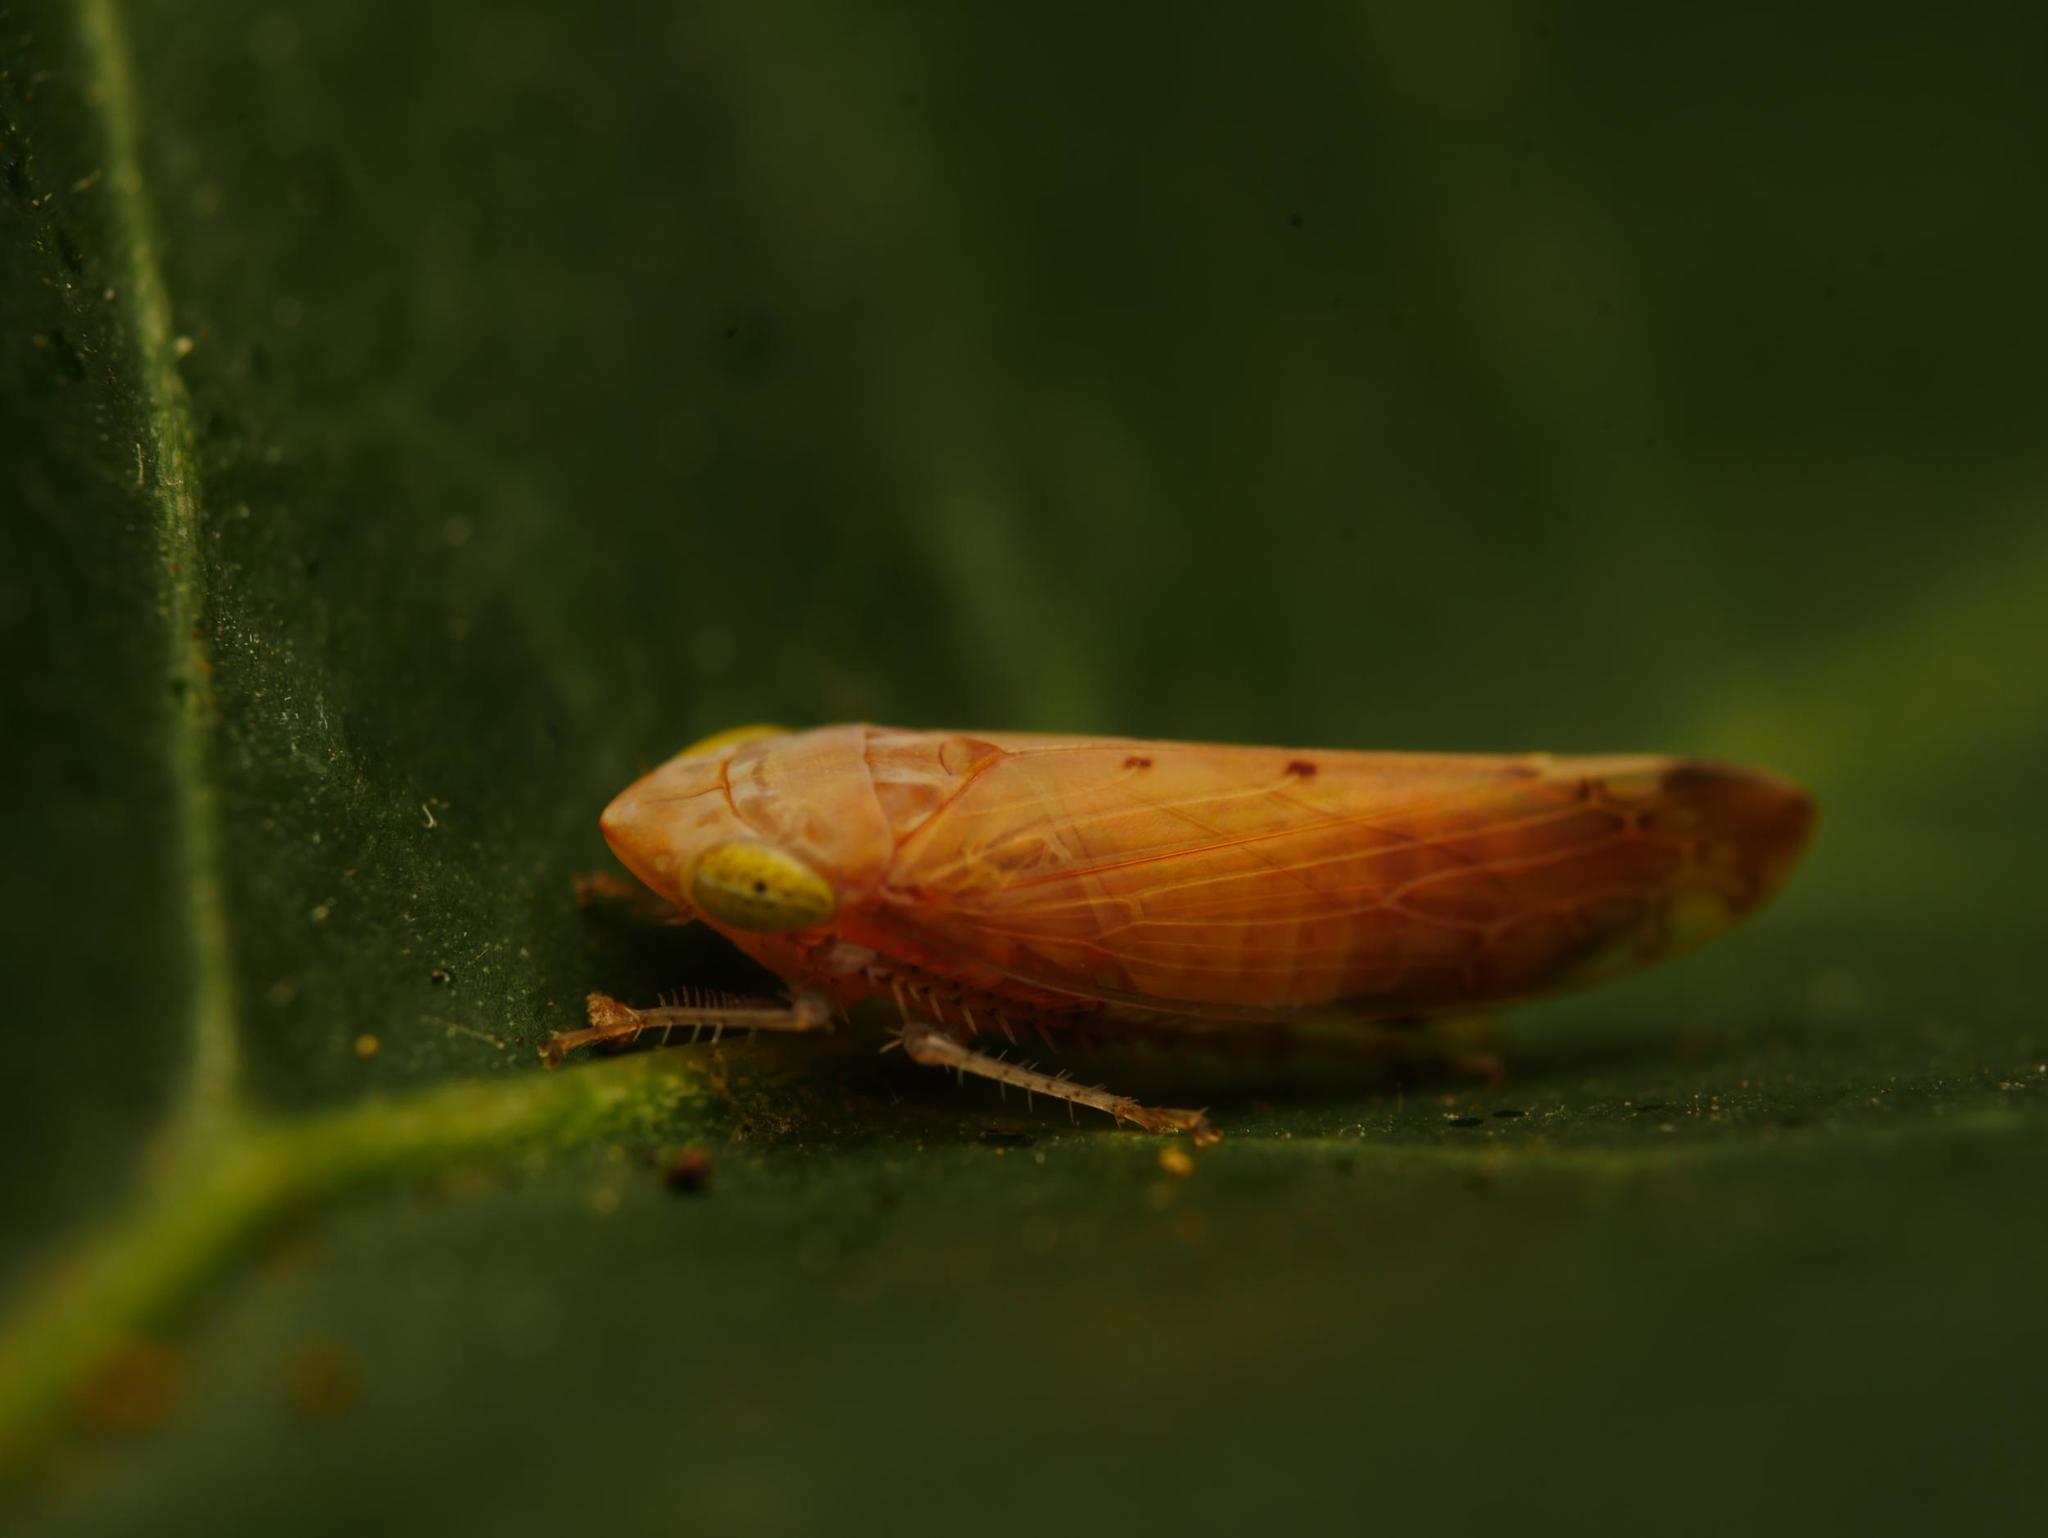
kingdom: Animalia
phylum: Arthropoda
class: Insecta
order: Hemiptera
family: Cicadellidae
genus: Synophropsis
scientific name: Synophropsis lauri
